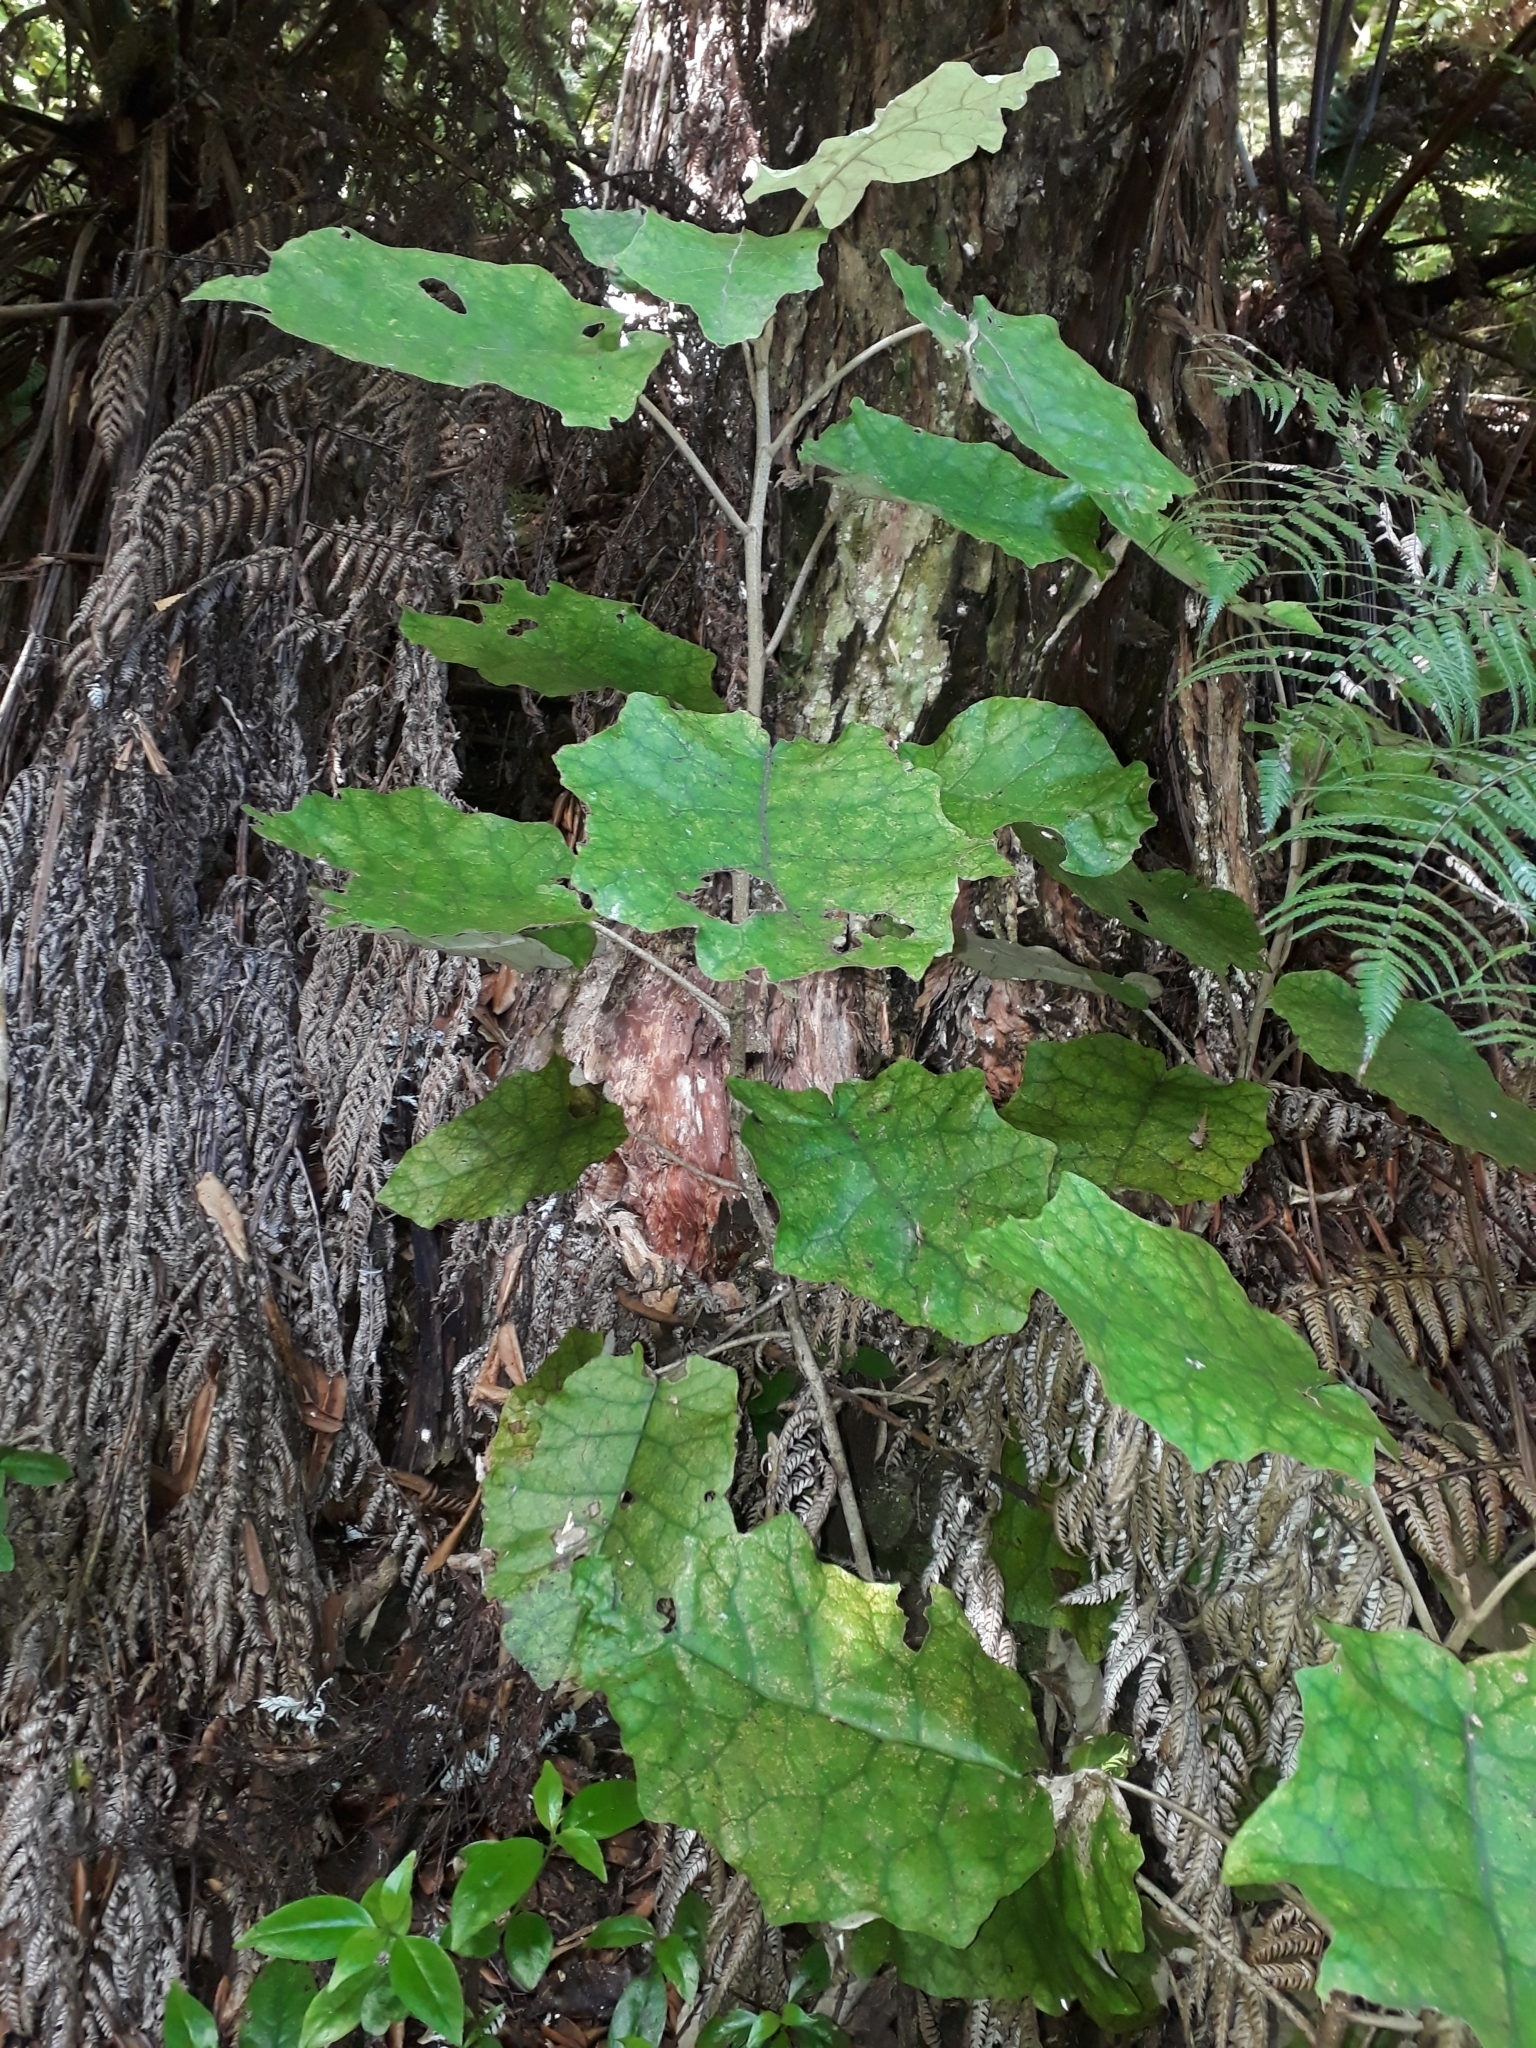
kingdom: Plantae
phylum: Tracheophyta
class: Magnoliopsida
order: Asterales
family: Asteraceae
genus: Brachyglottis
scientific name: Brachyglottis repanda
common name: Hedge ragwort
